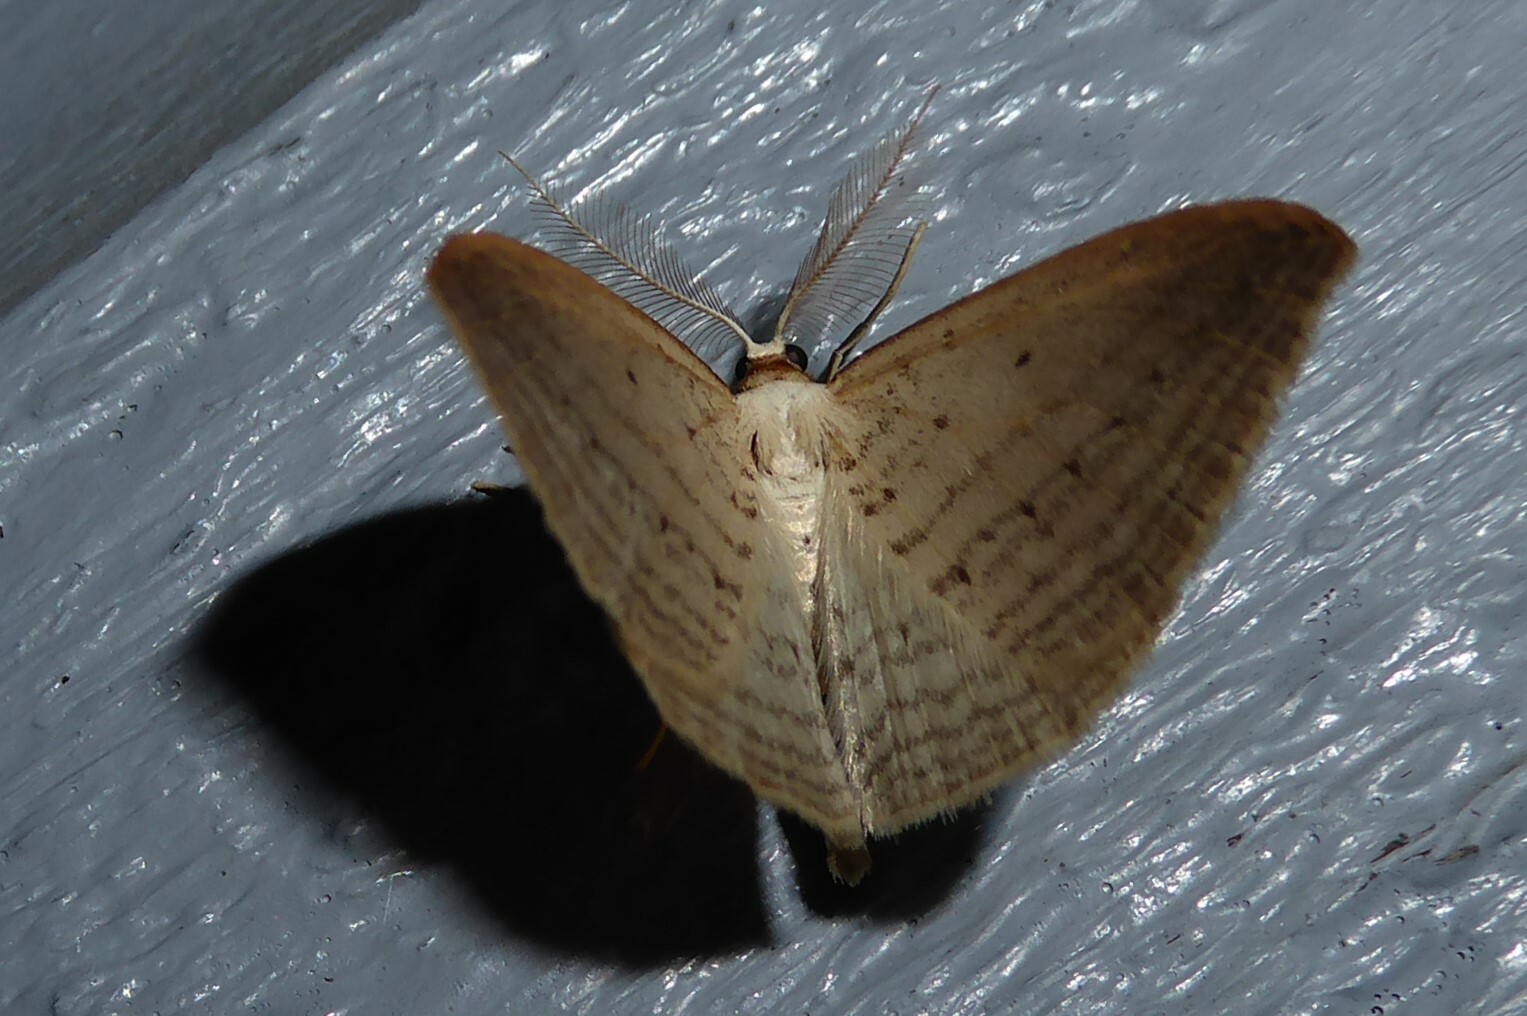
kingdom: Animalia
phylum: Arthropoda
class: Insecta
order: Lepidoptera
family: Geometridae
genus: Orthoclydon
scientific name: Orthoclydon praefectata
